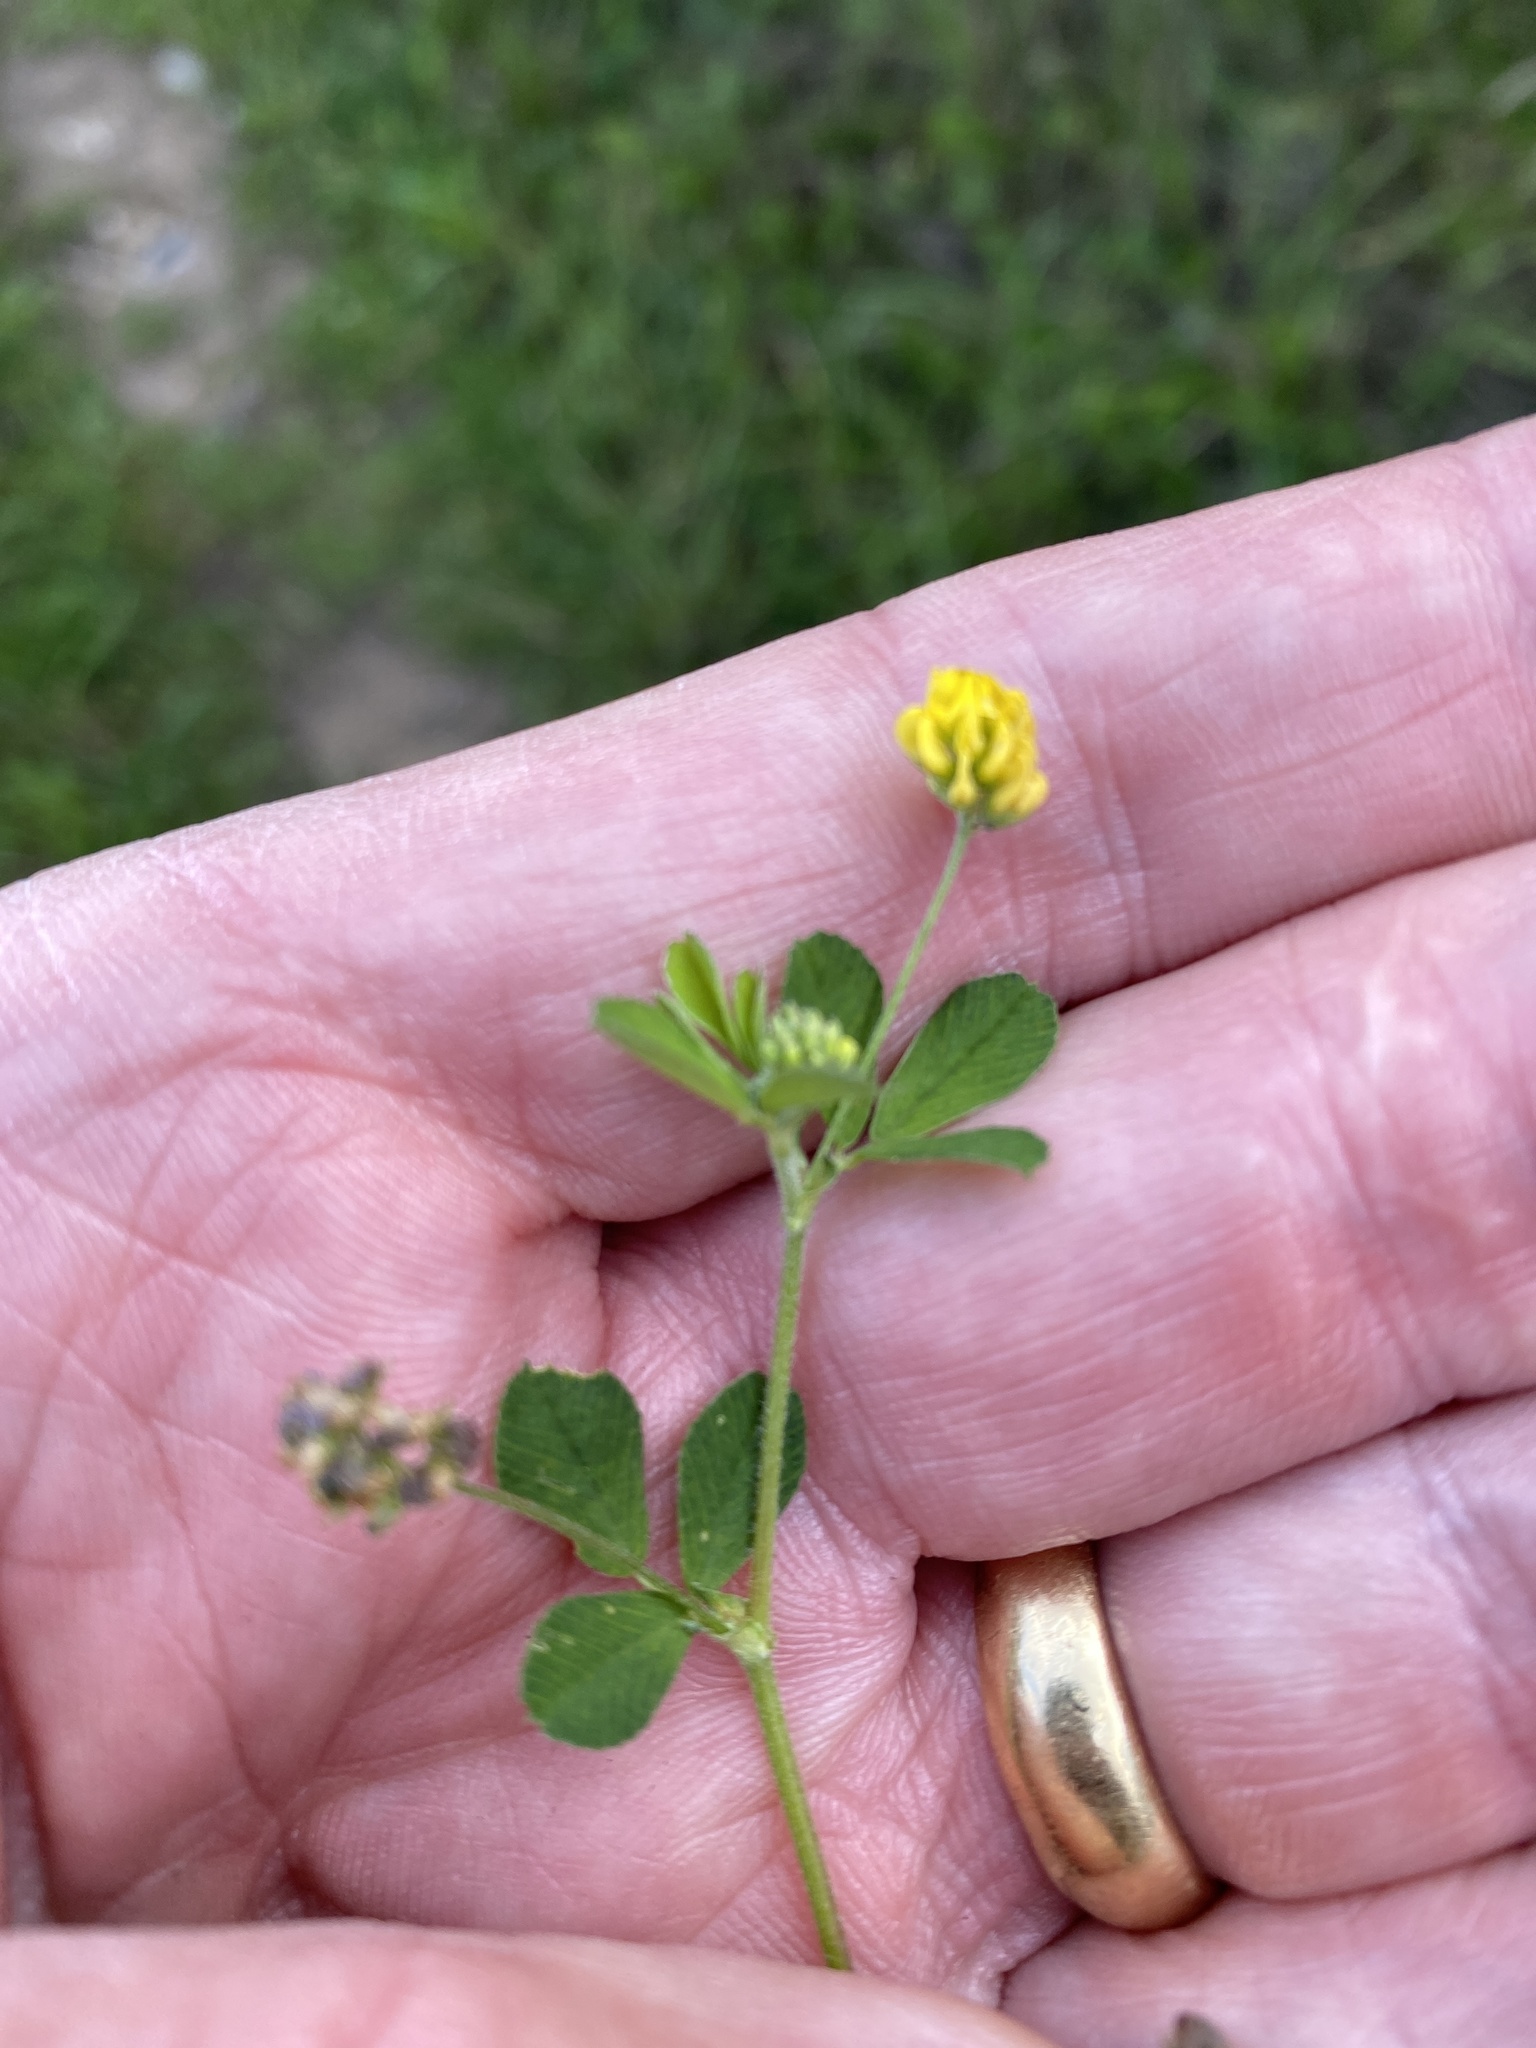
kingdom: Plantae
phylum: Tracheophyta
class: Magnoliopsida
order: Fabales
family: Fabaceae
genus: Medicago
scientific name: Medicago lupulina
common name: Black medick
